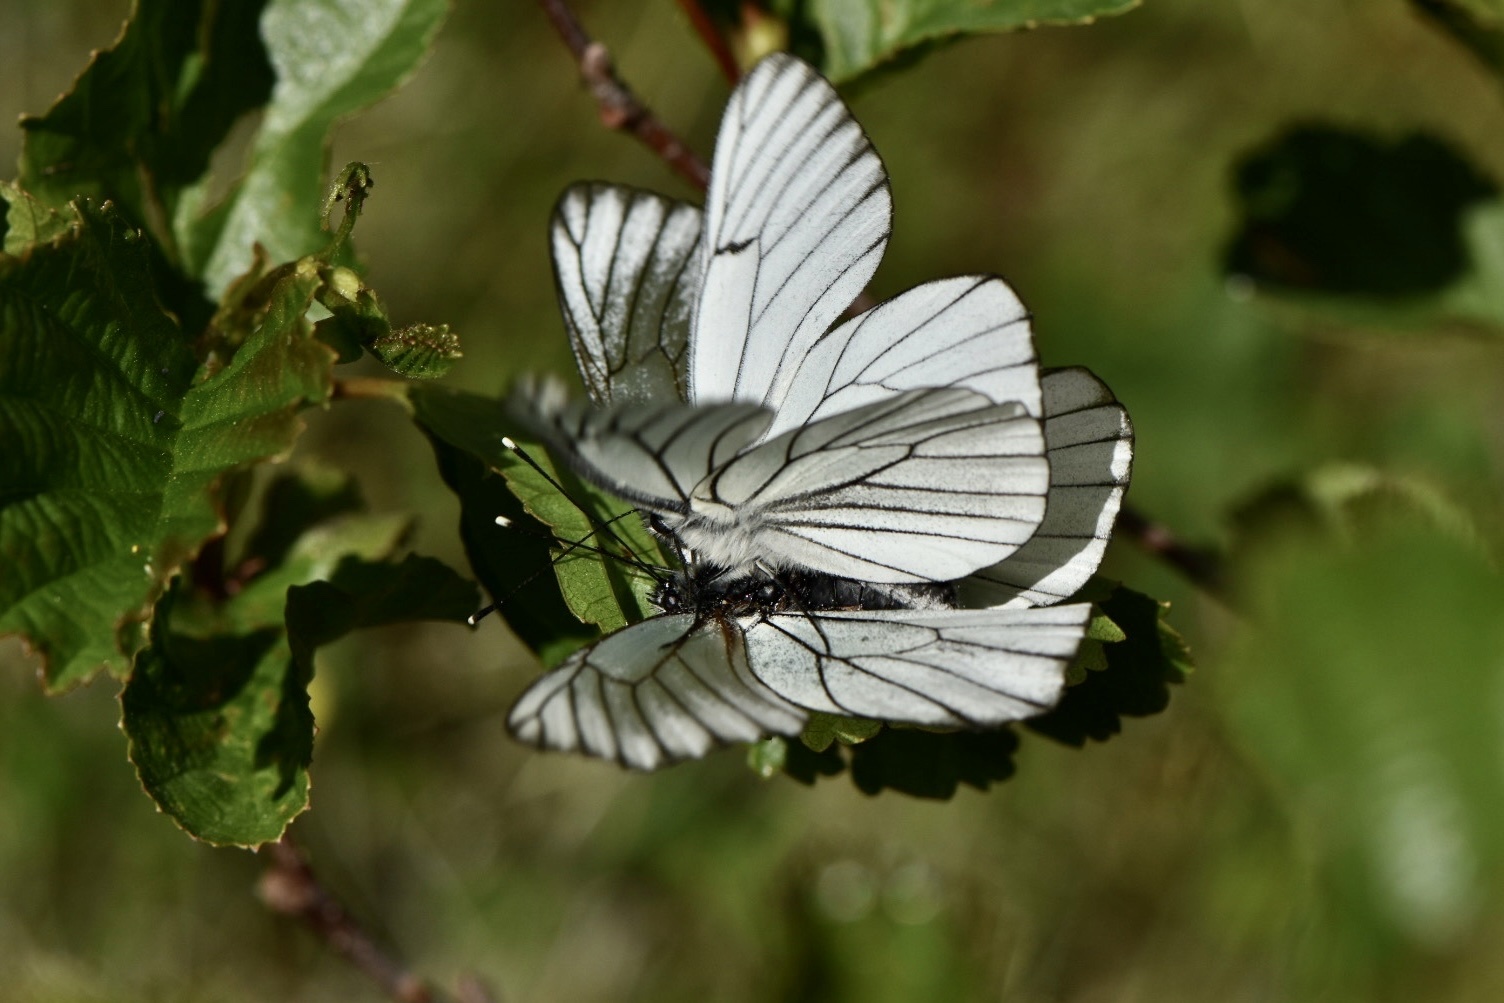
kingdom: Animalia
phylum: Arthropoda
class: Insecta
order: Lepidoptera
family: Pieridae
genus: Aporia
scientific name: Aporia crataegi
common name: Black-veined white
